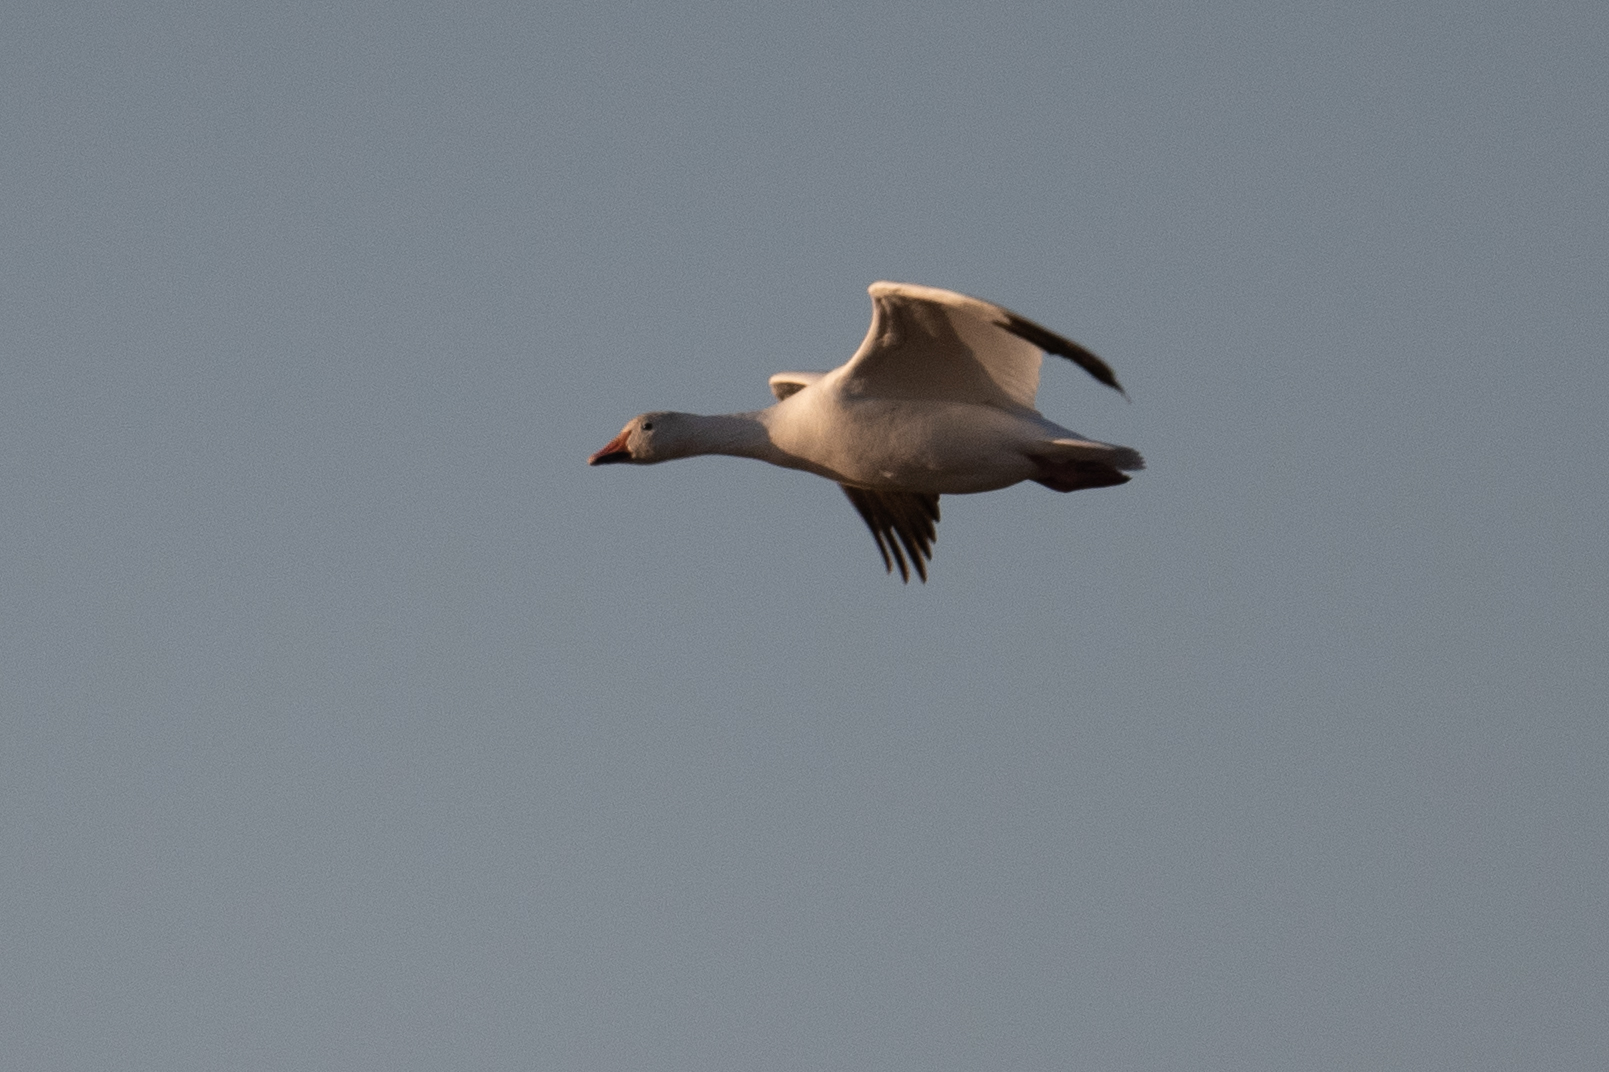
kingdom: Animalia
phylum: Chordata
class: Aves
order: Anseriformes
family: Anatidae
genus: Anser
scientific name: Anser caerulescens
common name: Snow goose
